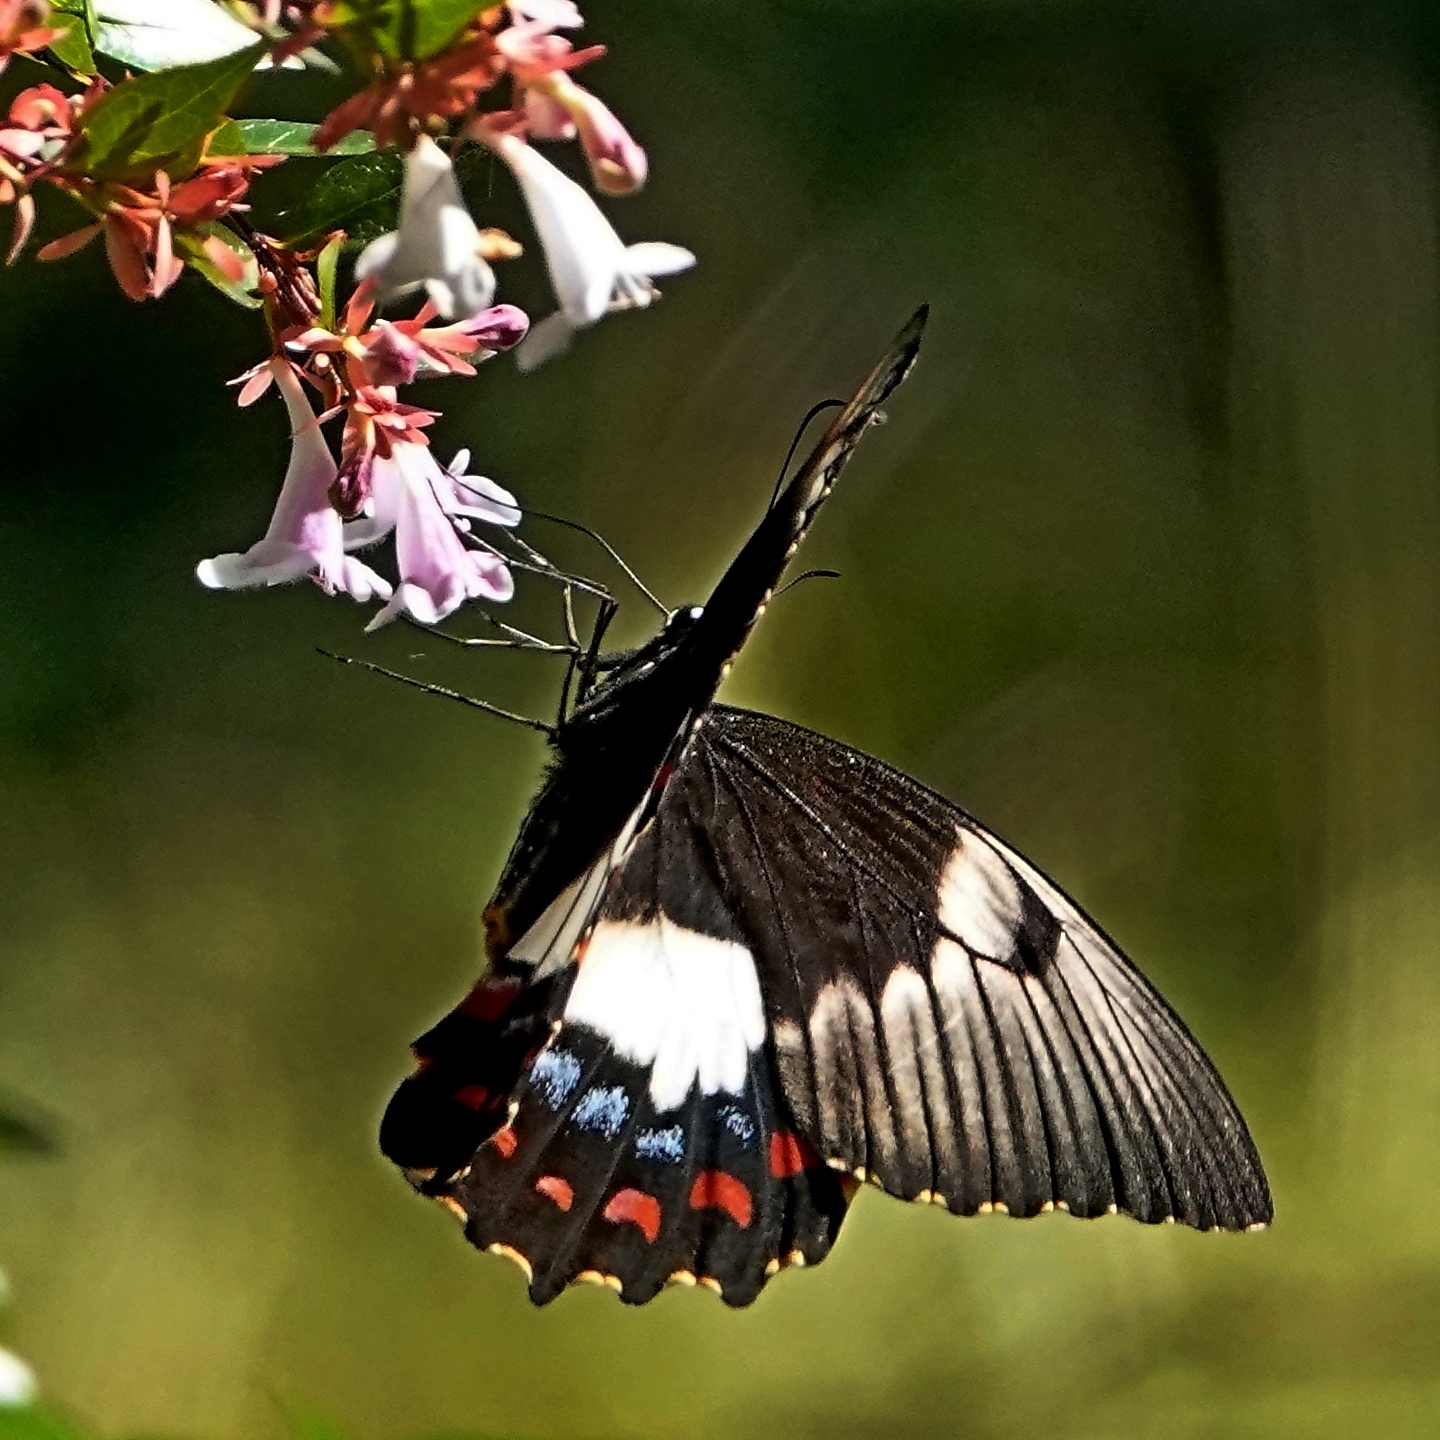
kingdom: Animalia
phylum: Arthropoda
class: Insecta
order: Lepidoptera
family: Papilionidae
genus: Papilio
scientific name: Papilio aegeus
